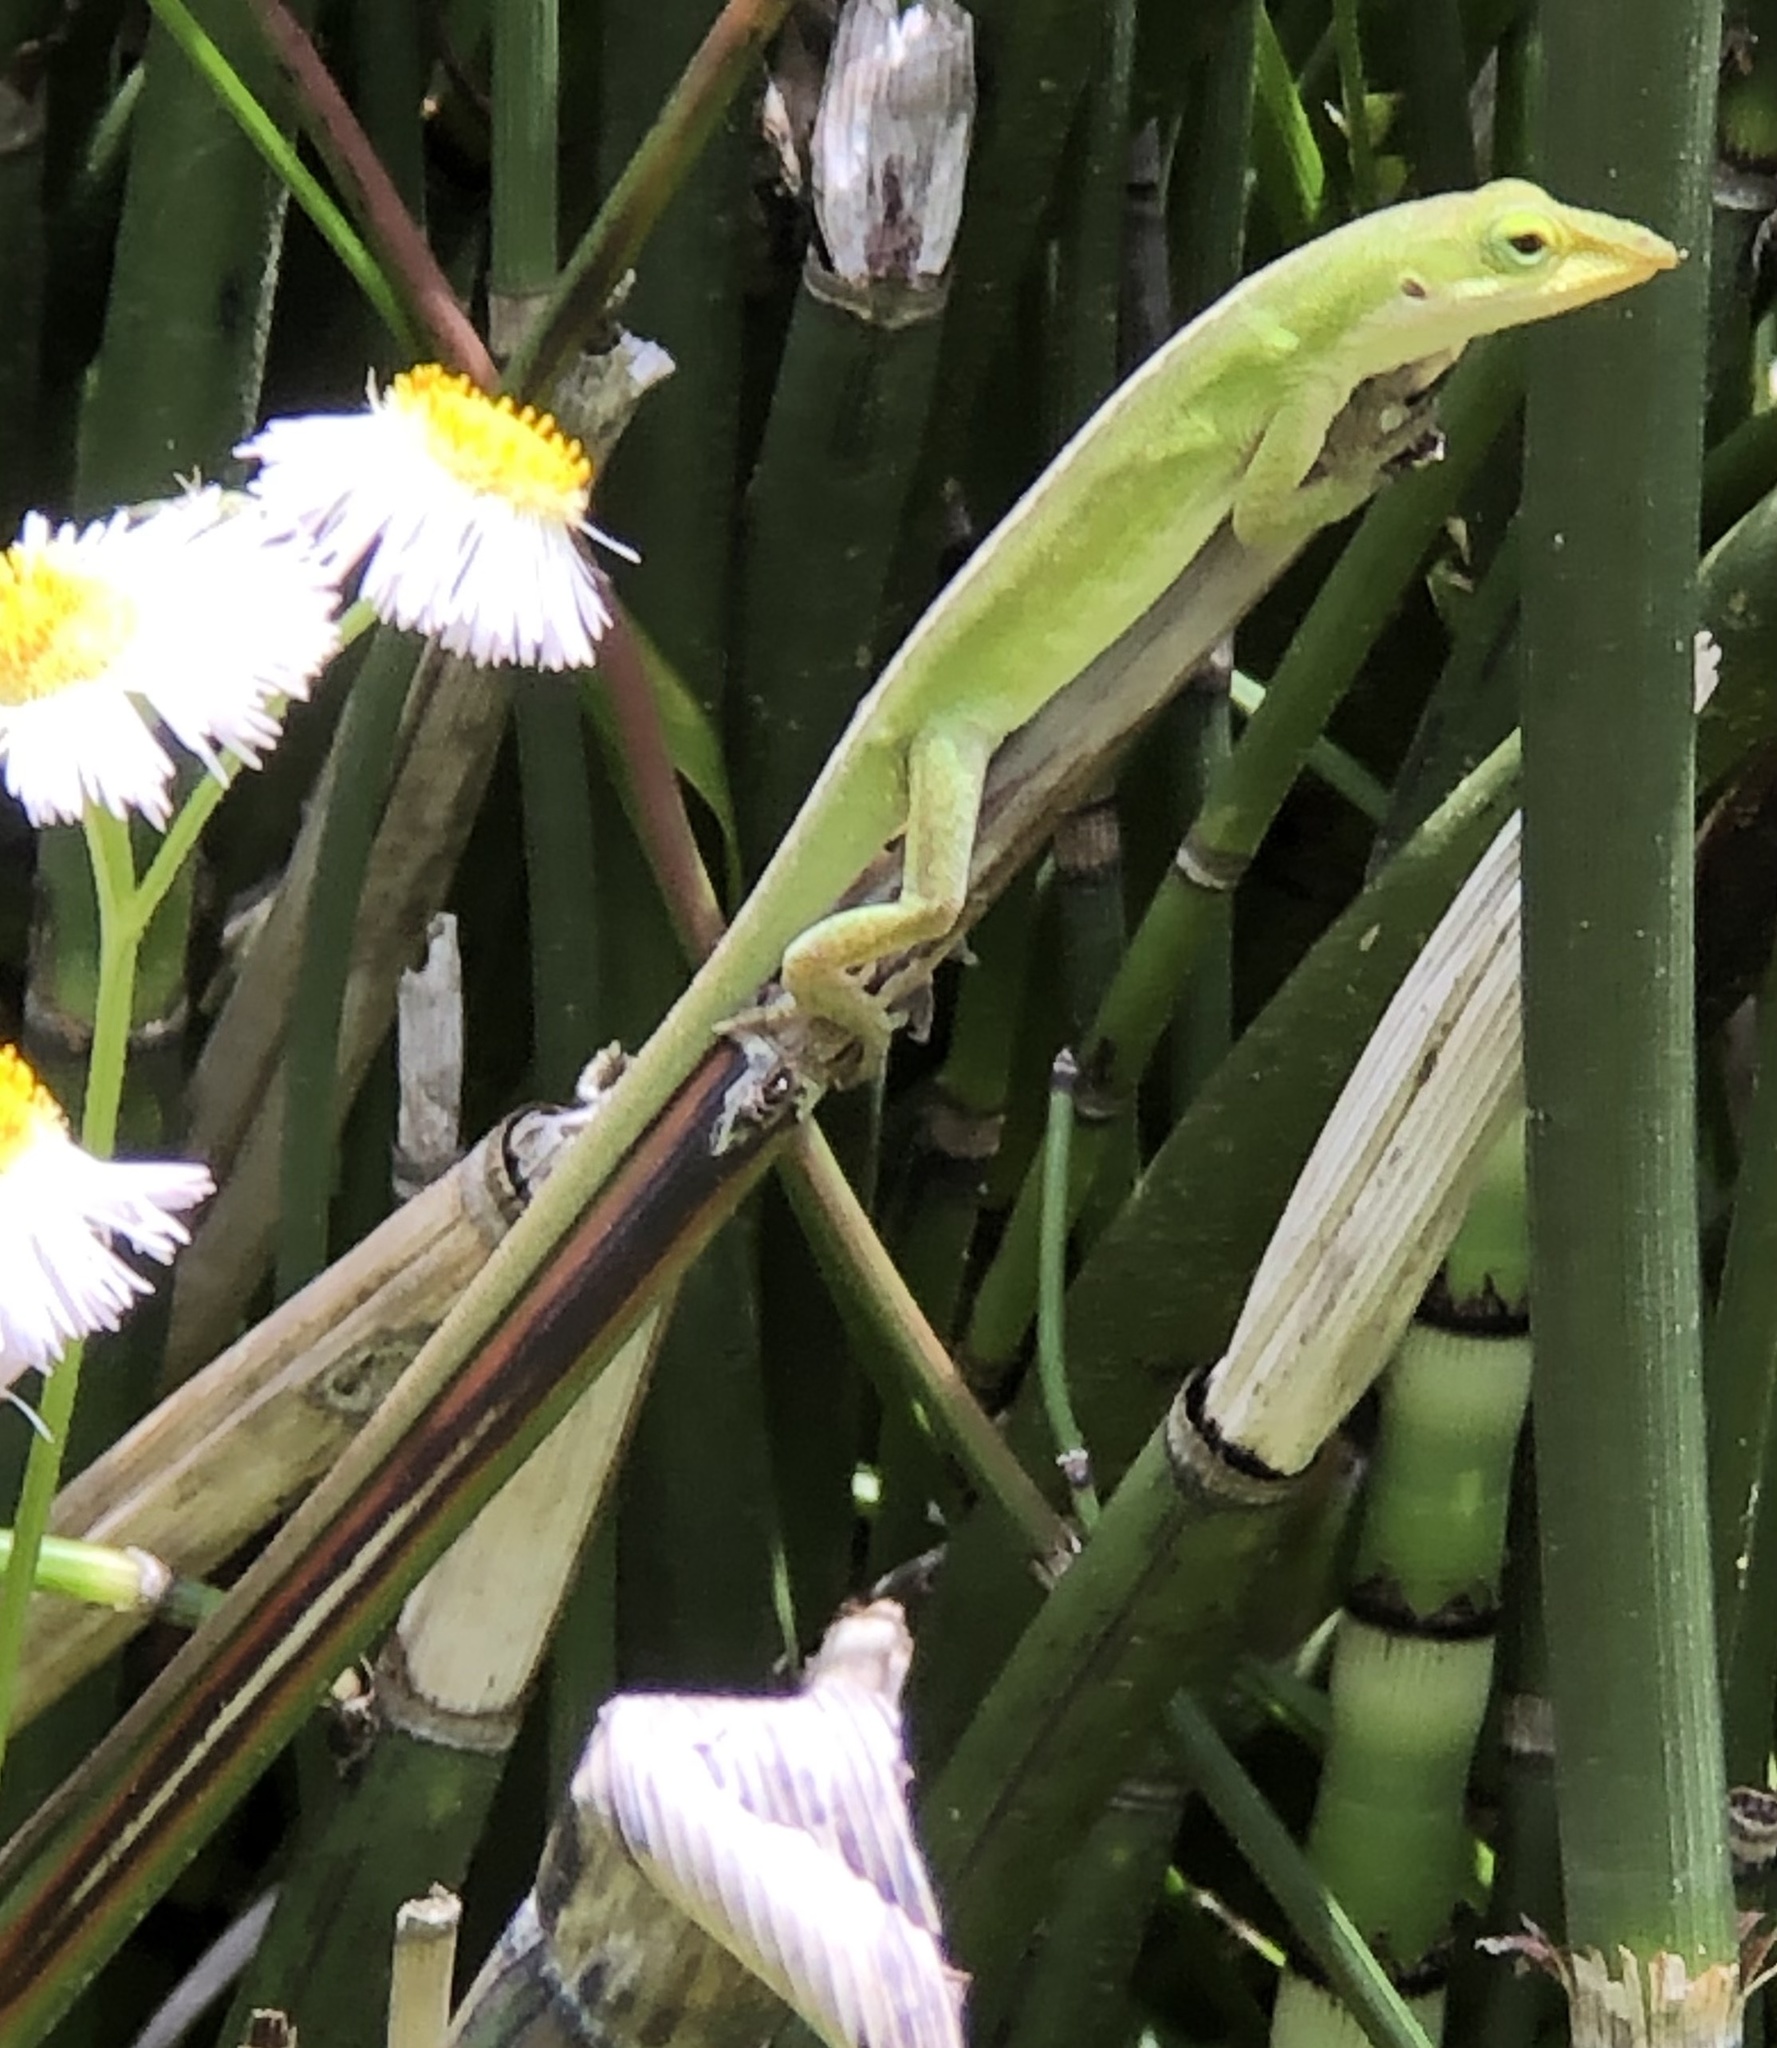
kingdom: Animalia
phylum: Chordata
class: Squamata
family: Dactyloidae
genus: Anolis
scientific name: Anolis carolinensis
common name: Green anole
